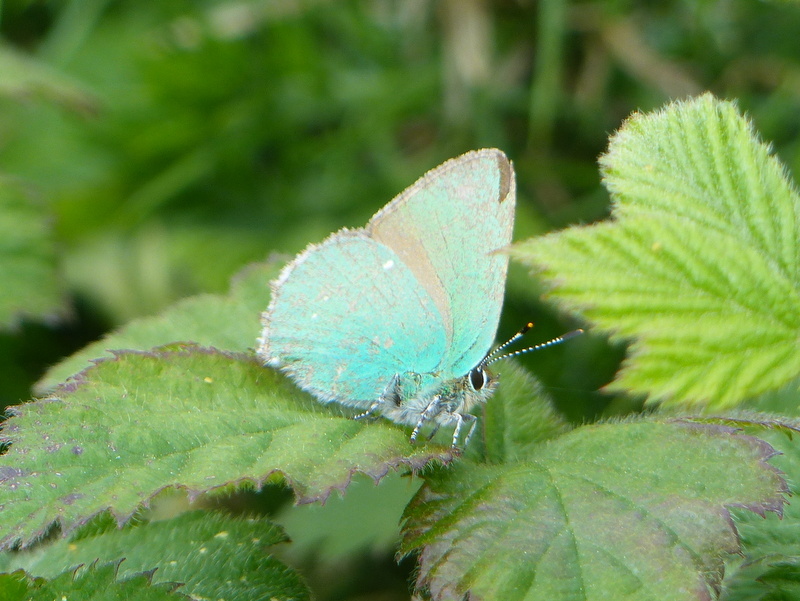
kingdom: Animalia
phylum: Arthropoda
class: Insecta
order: Lepidoptera
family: Lycaenidae
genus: Callophrys
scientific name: Callophrys rubi
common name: Green hairstreak
